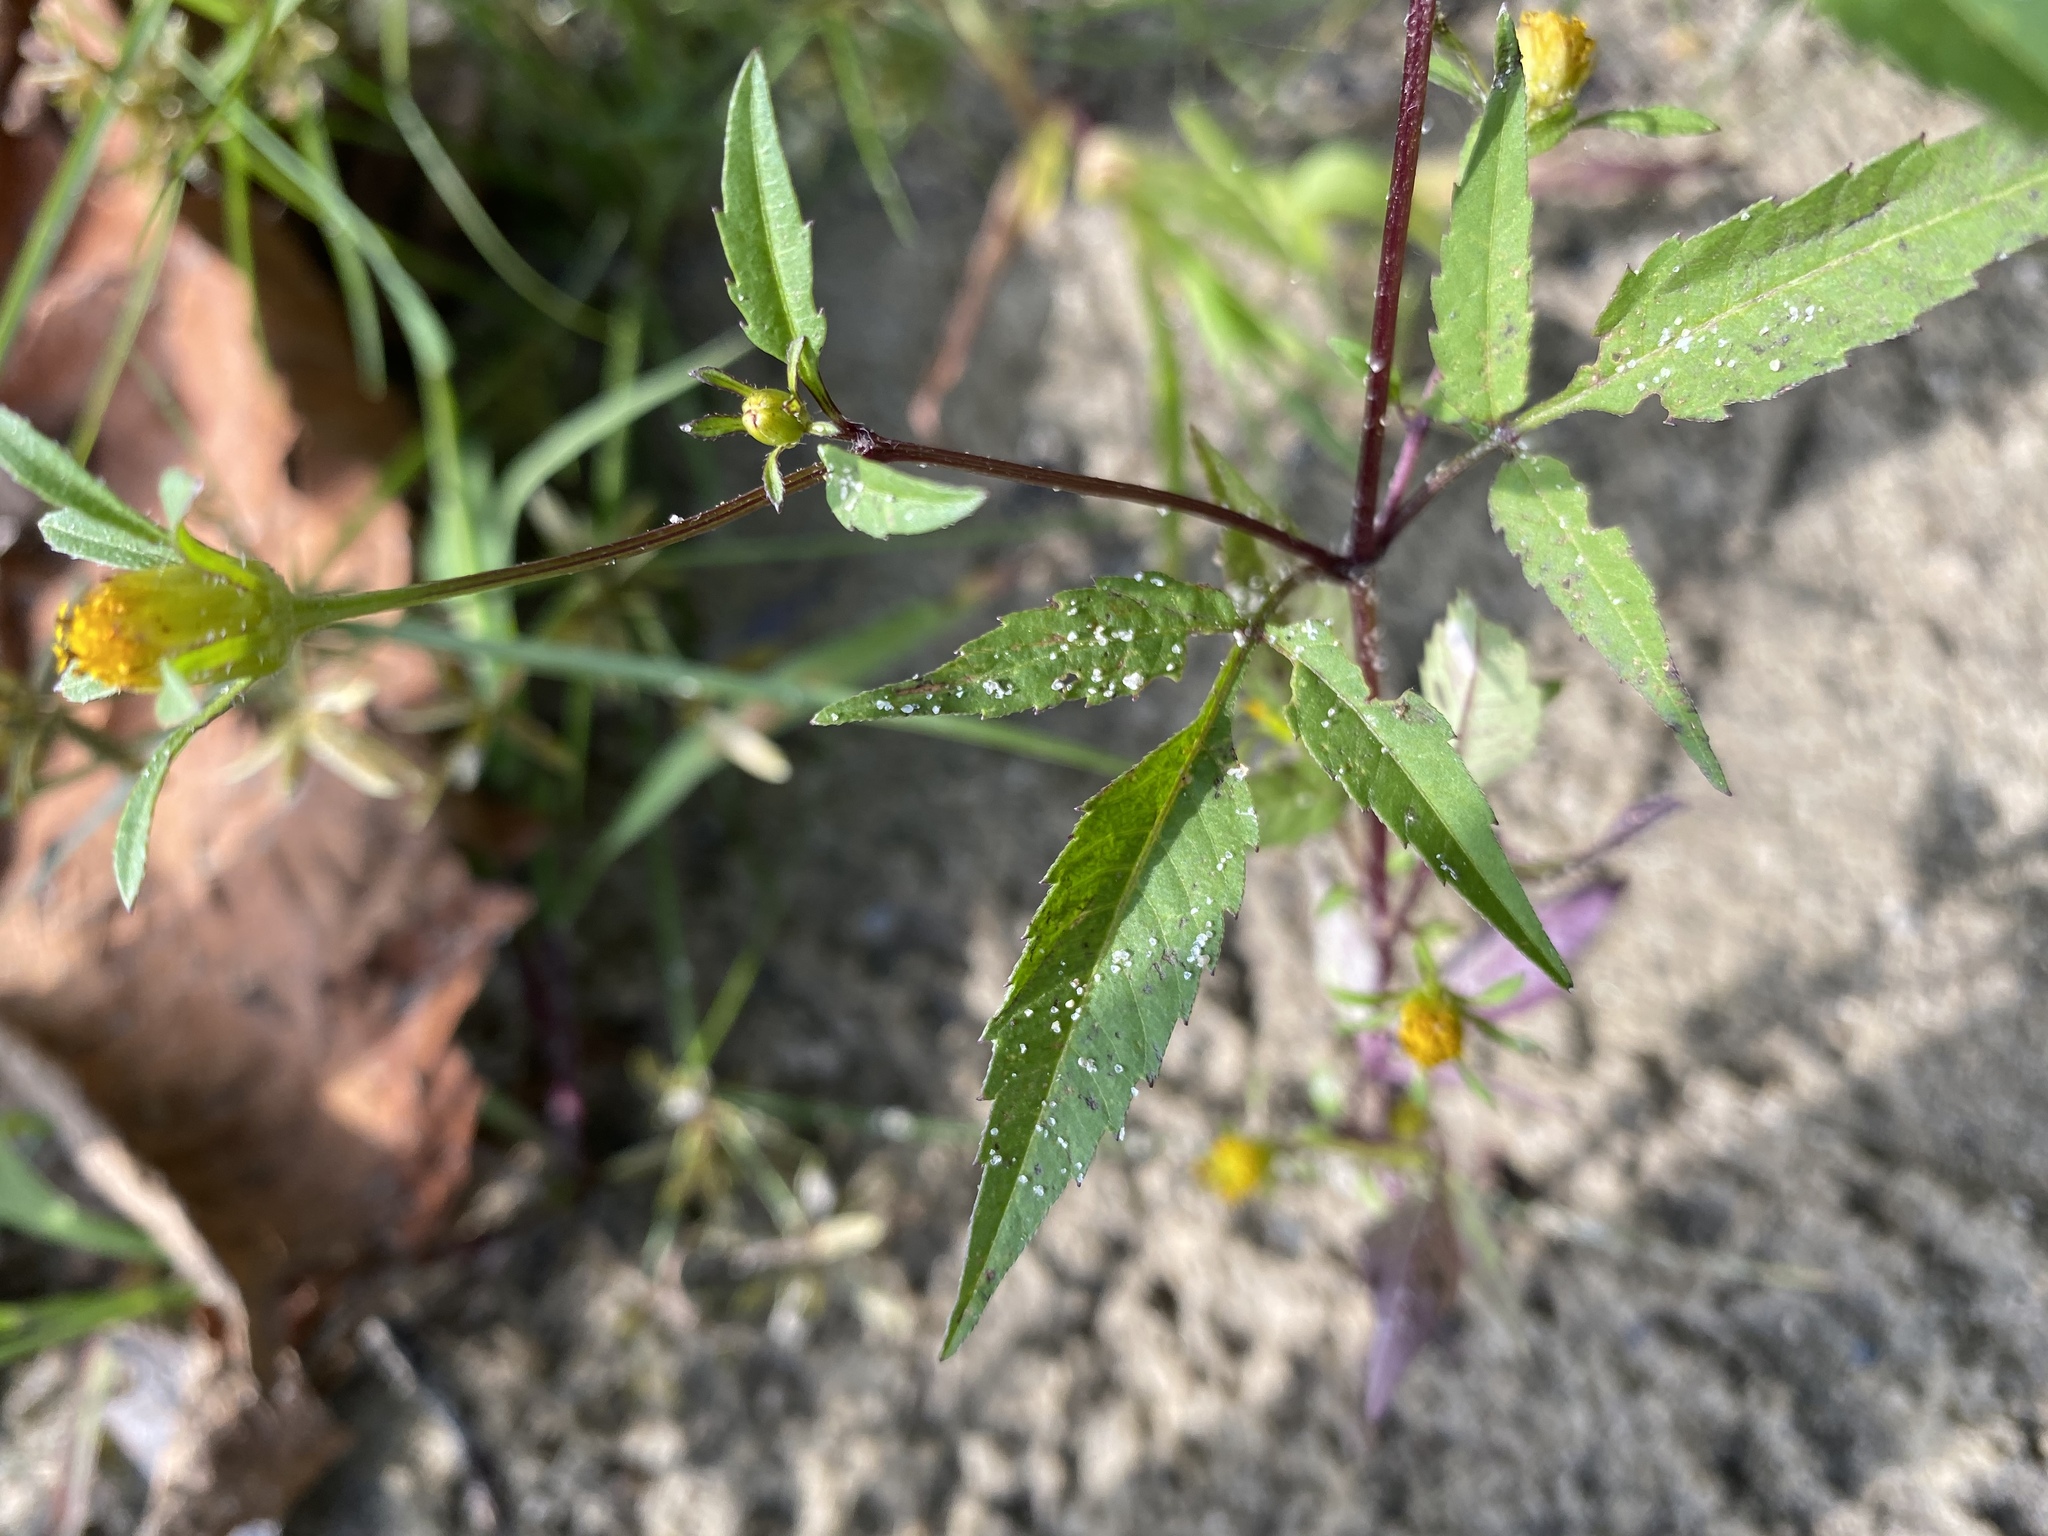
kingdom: Plantae
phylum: Tracheophyta
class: Magnoliopsida
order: Asterales
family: Asteraceae
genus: Bidens
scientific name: Bidens frondosa
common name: Beggarticks
